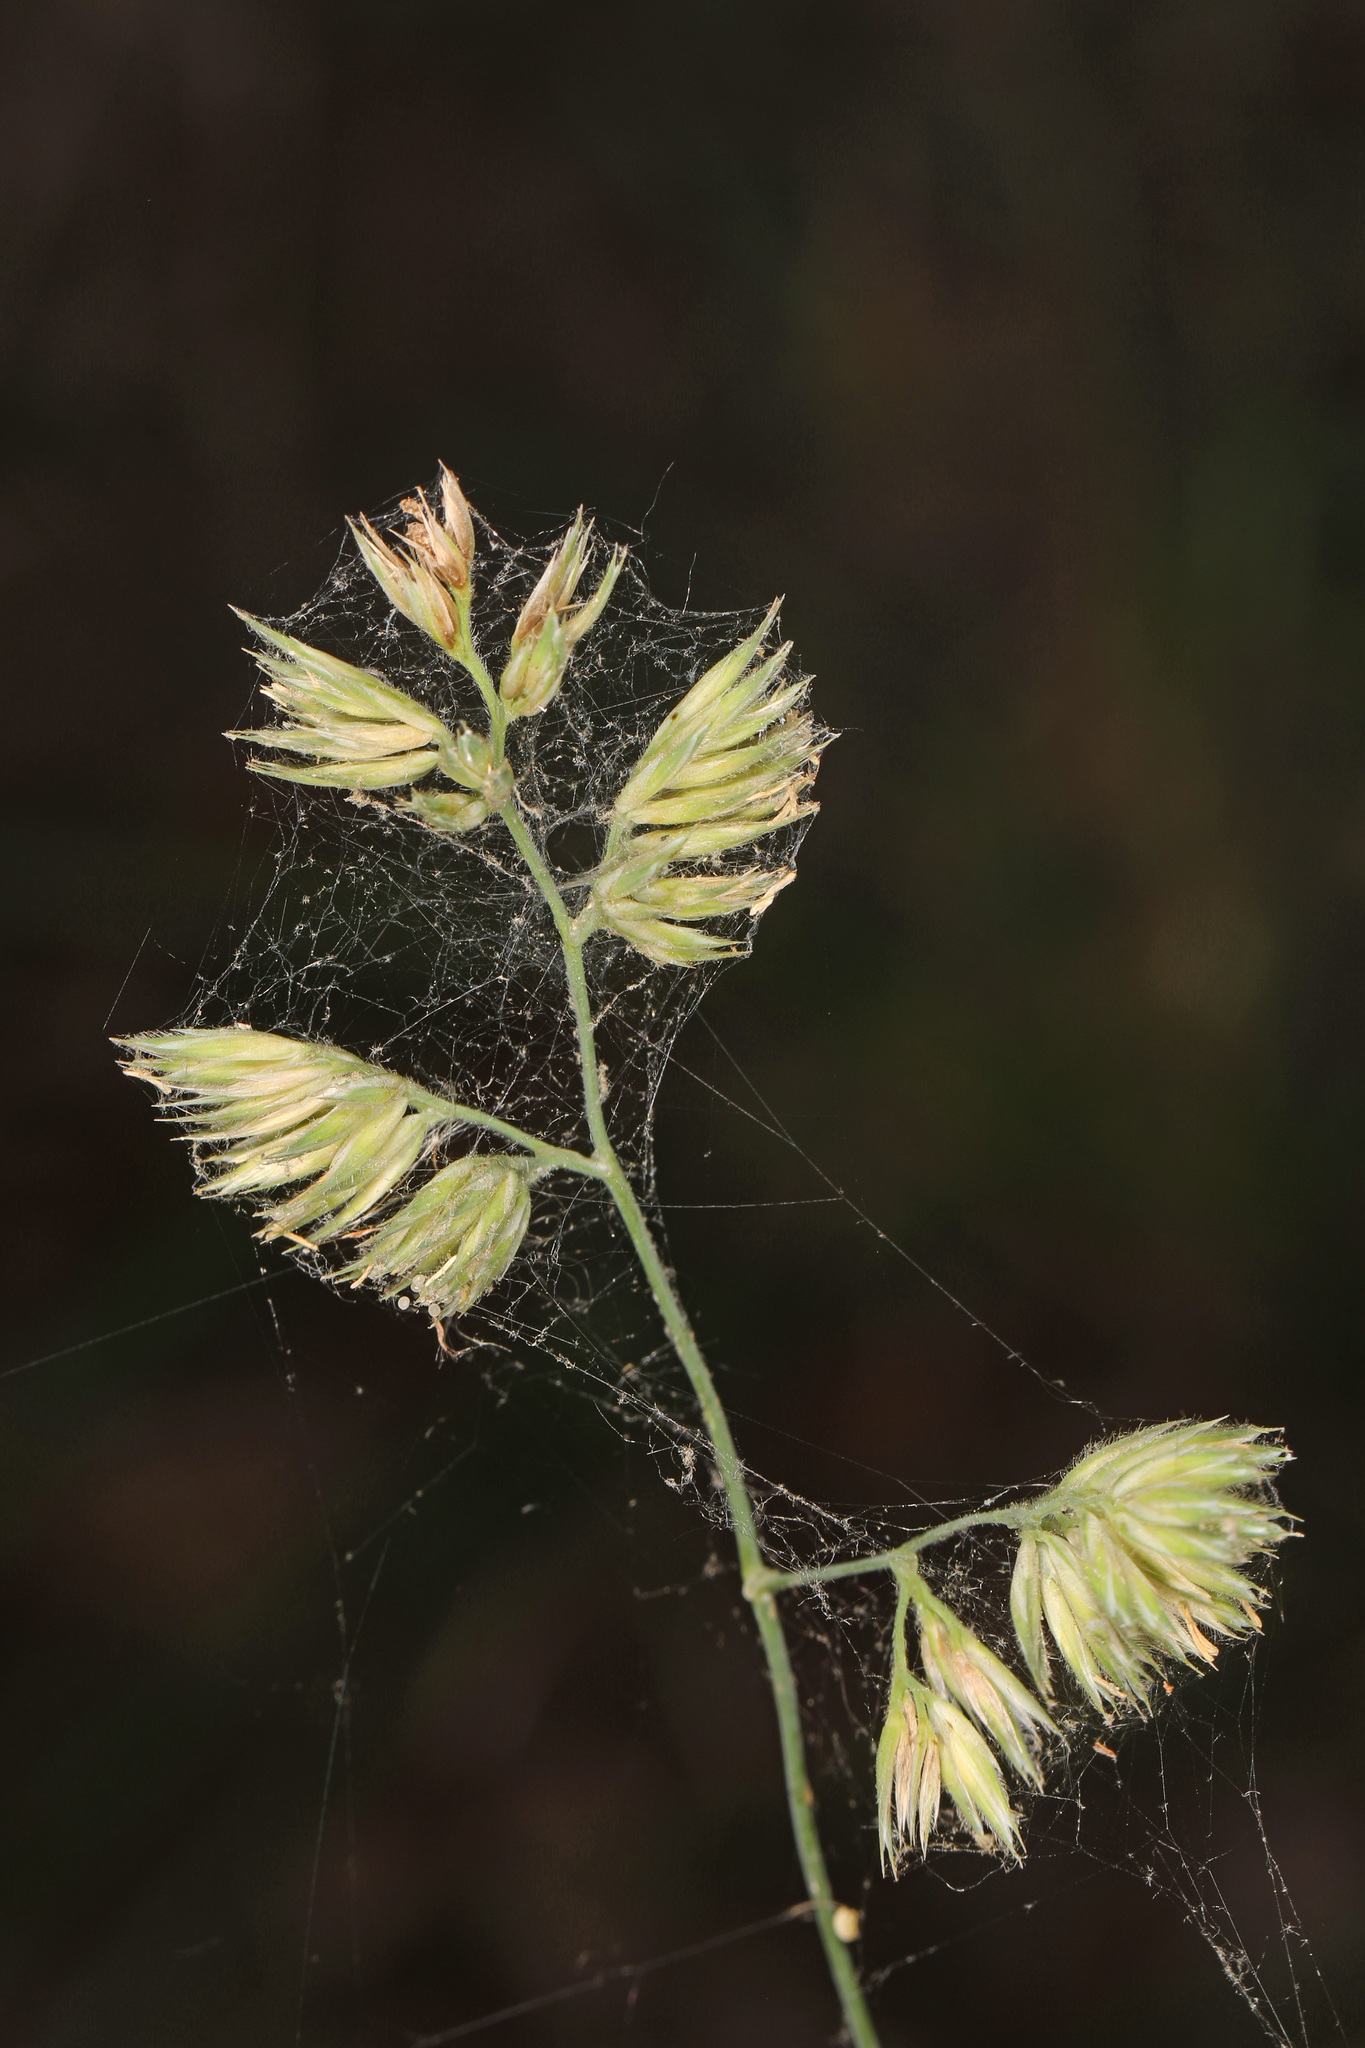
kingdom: Plantae
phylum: Tracheophyta
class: Liliopsida
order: Poales
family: Poaceae
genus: Dactylis
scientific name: Dactylis glomerata
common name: Orchardgrass
